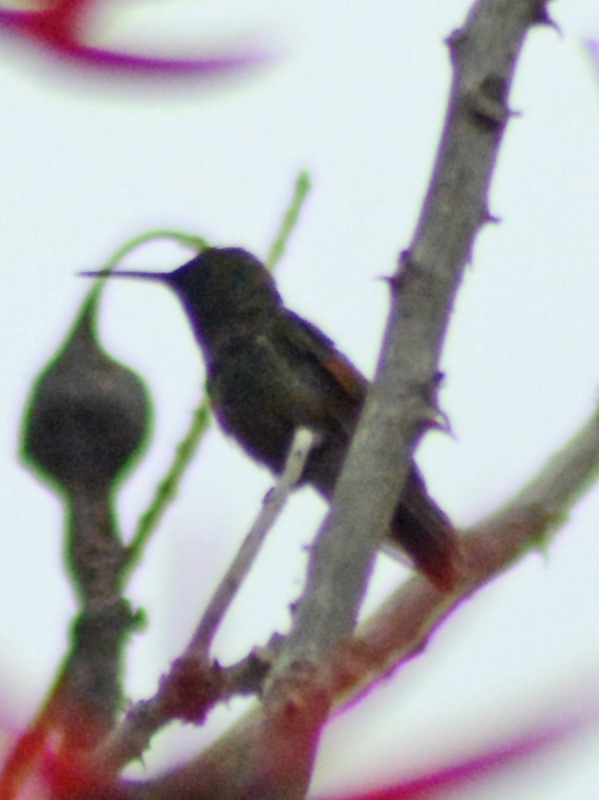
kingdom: Animalia
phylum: Chordata
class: Aves
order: Apodiformes
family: Trochilidae
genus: Saucerottia
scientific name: Saucerottia beryllina
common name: Berylline hummingbird
